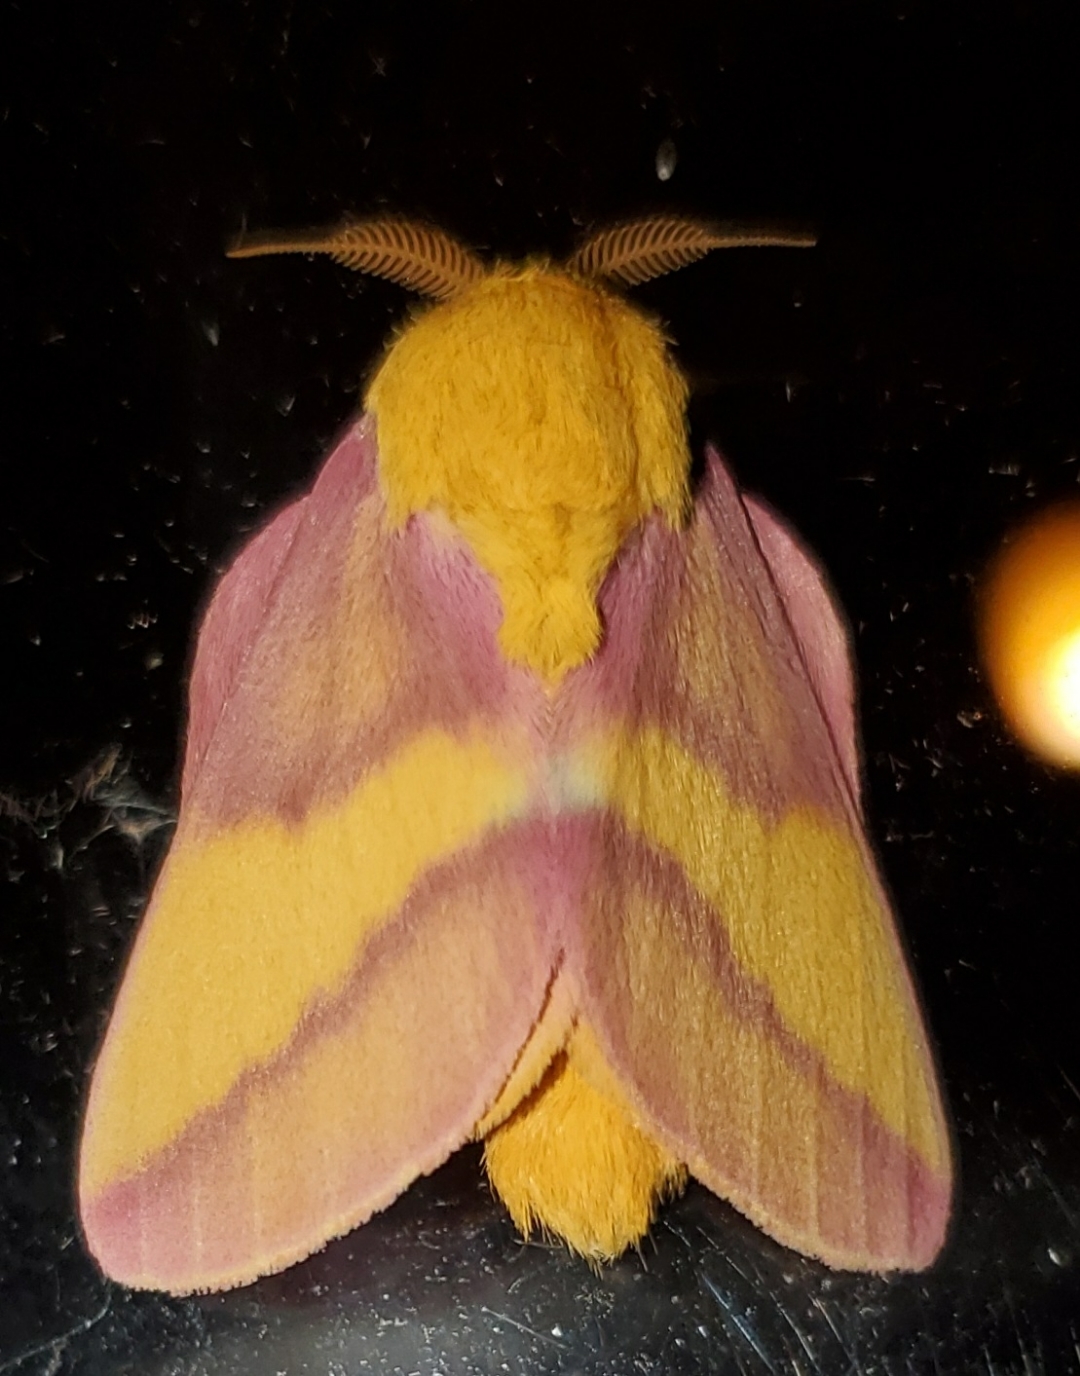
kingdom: Animalia
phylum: Arthropoda
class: Insecta
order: Lepidoptera
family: Saturniidae
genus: Dryocampa
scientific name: Dryocampa rubicunda
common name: Rosy maple moth
